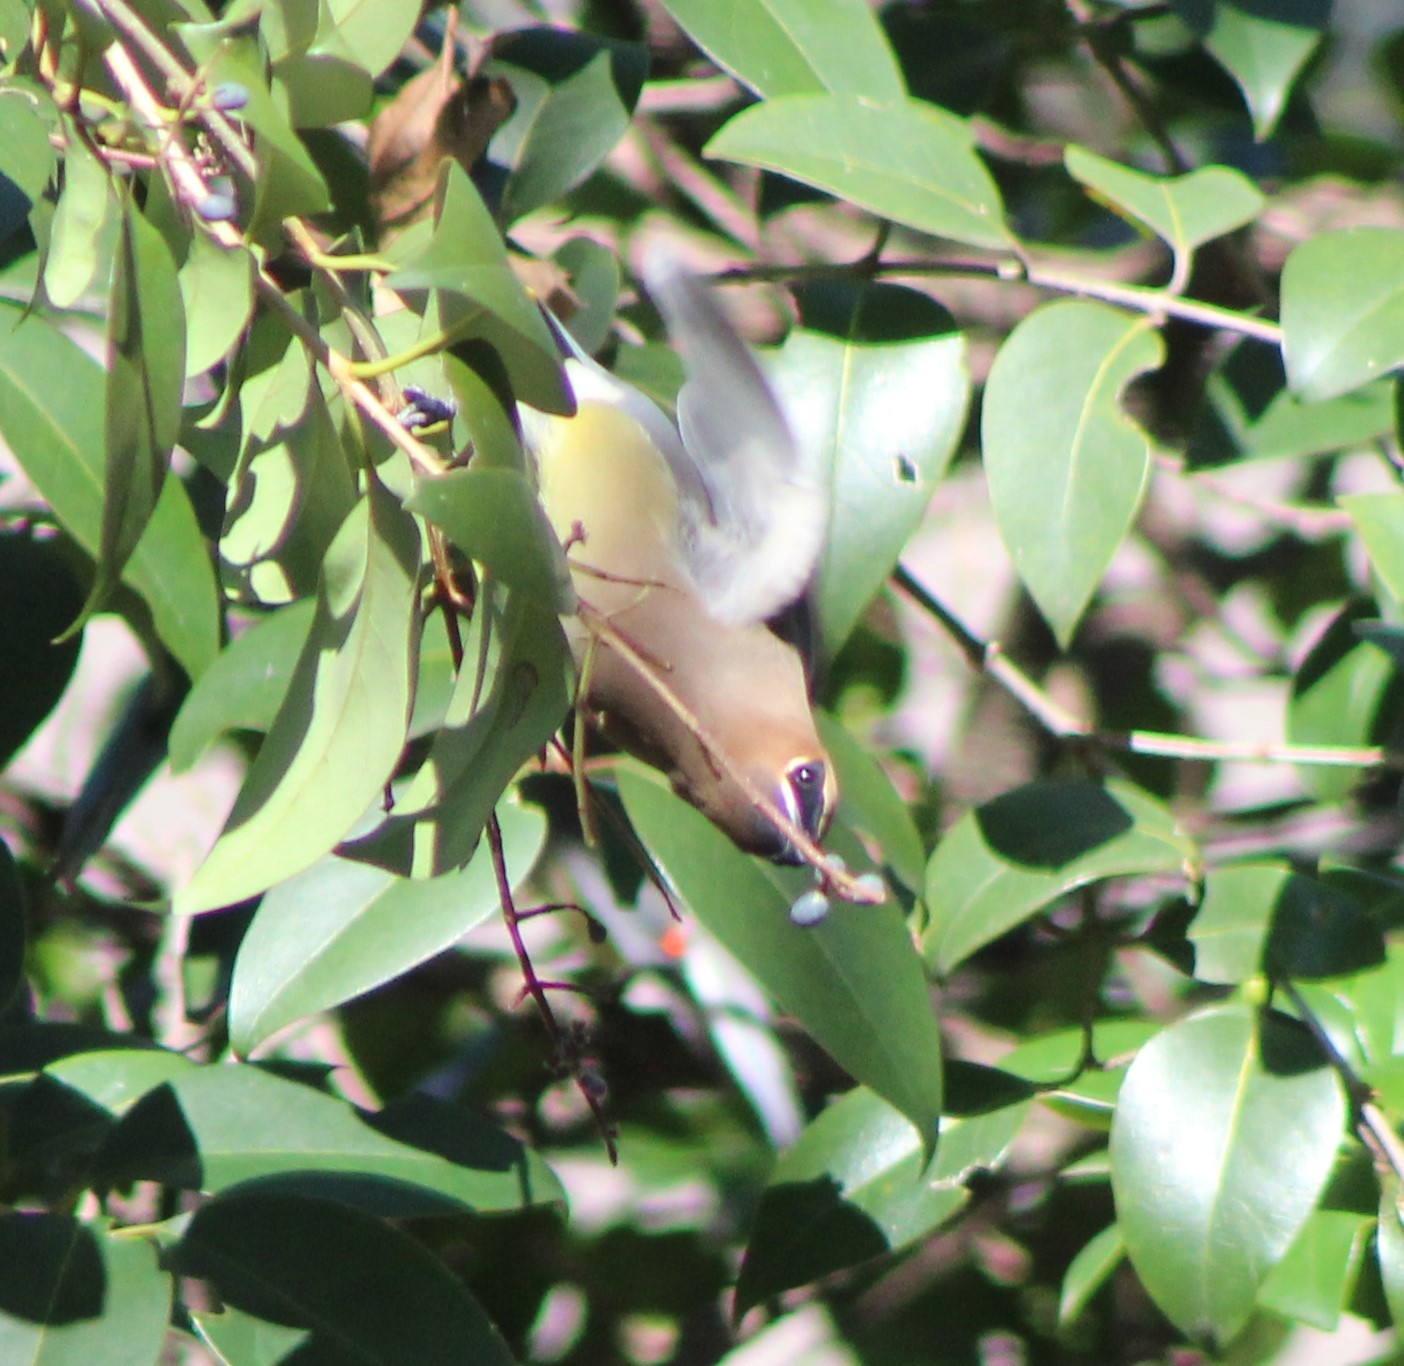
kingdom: Animalia
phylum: Chordata
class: Aves
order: Passeriformes
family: Bombycillidae
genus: Bombycilla
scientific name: Bombycilla cedrorum
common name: Cedar waxwing
